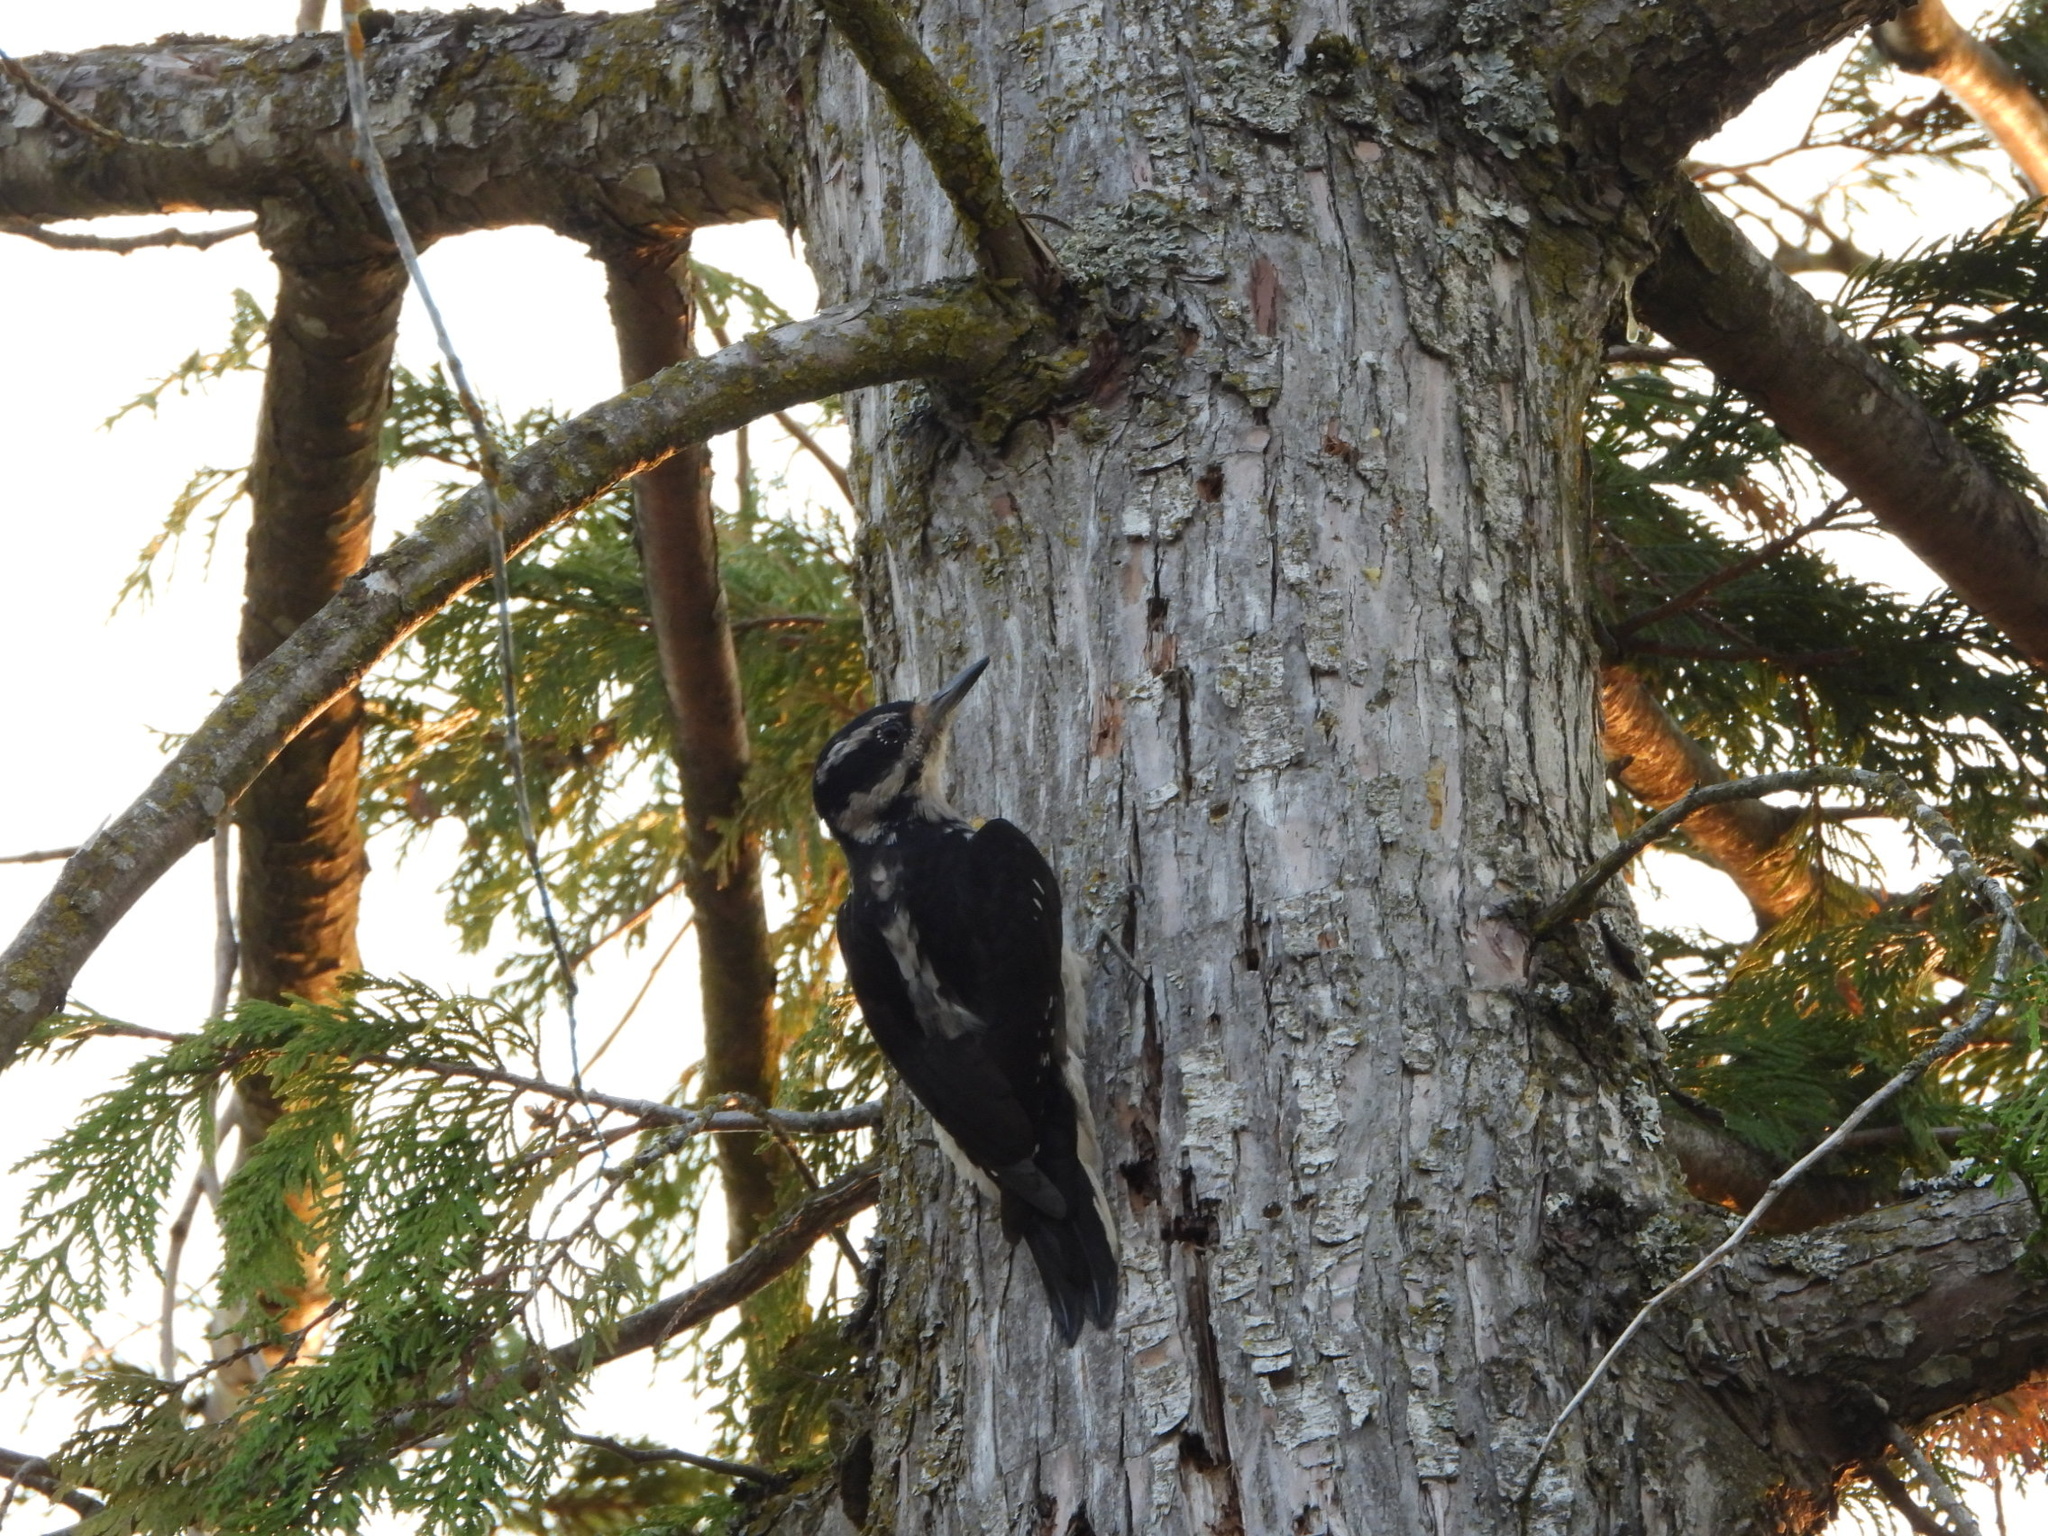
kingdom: Animalia
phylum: Chordata
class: Aves
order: Piciformes
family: Picidae
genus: Leuconotopicus
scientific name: Leuconotopicus villosus
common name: Hairy woodpecker
